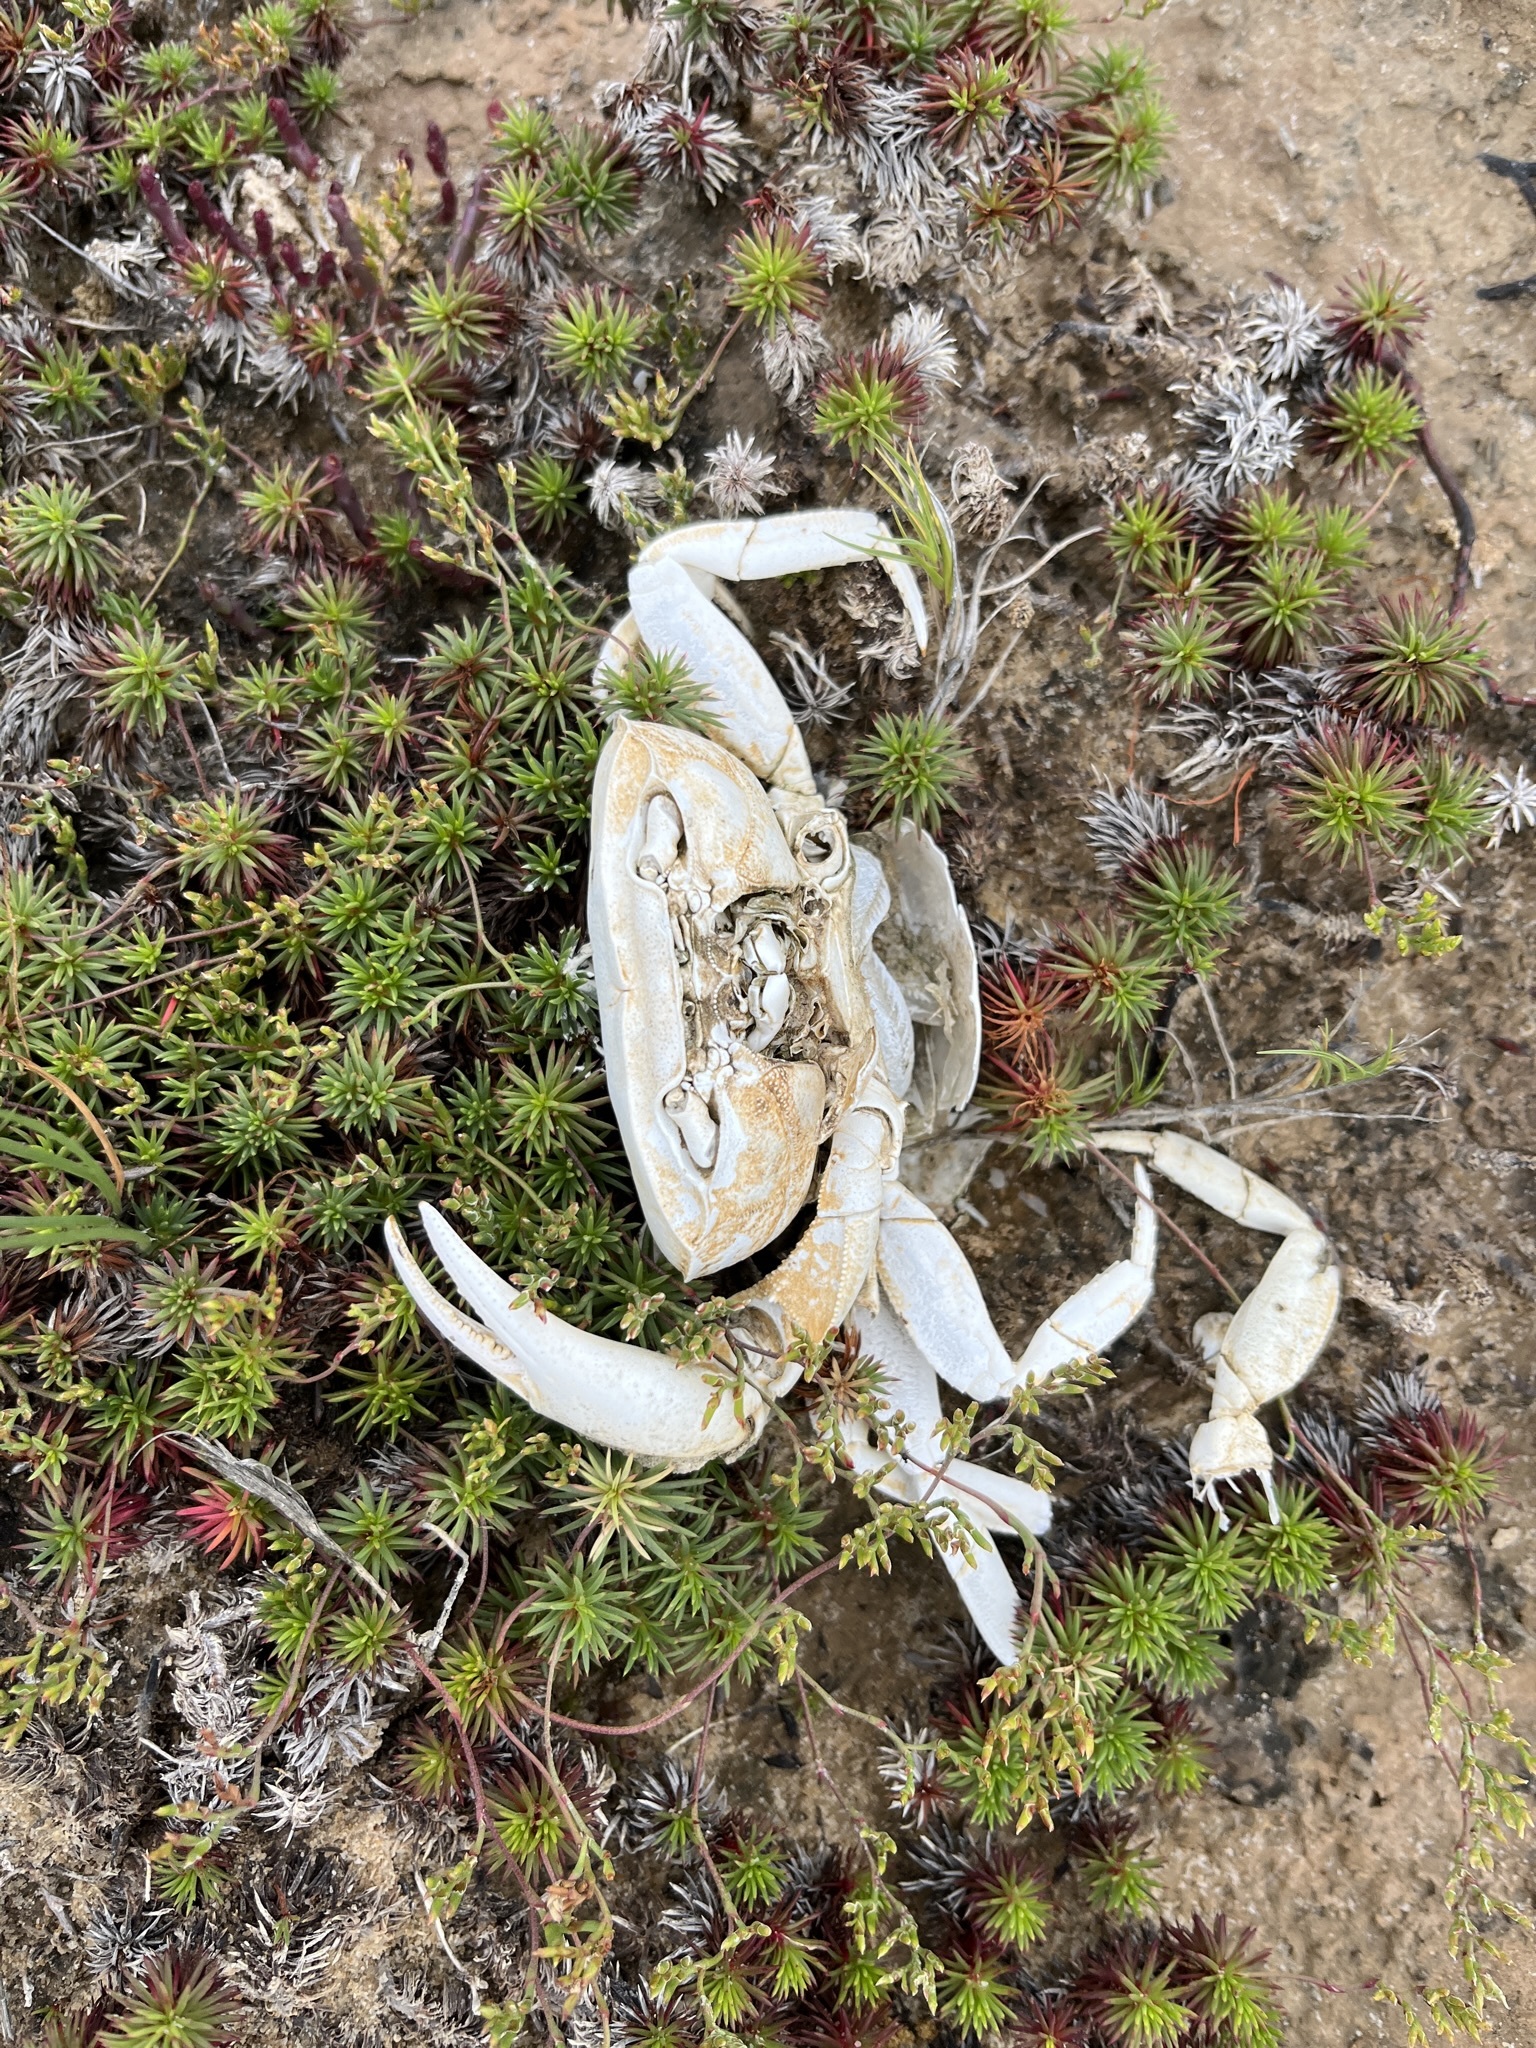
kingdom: Animalia
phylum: Arthropoda
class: Malacostraca
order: Decapoda
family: Potamonautidae
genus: Potamonautes
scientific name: Potamonautes barnardi
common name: Barnard's crab
